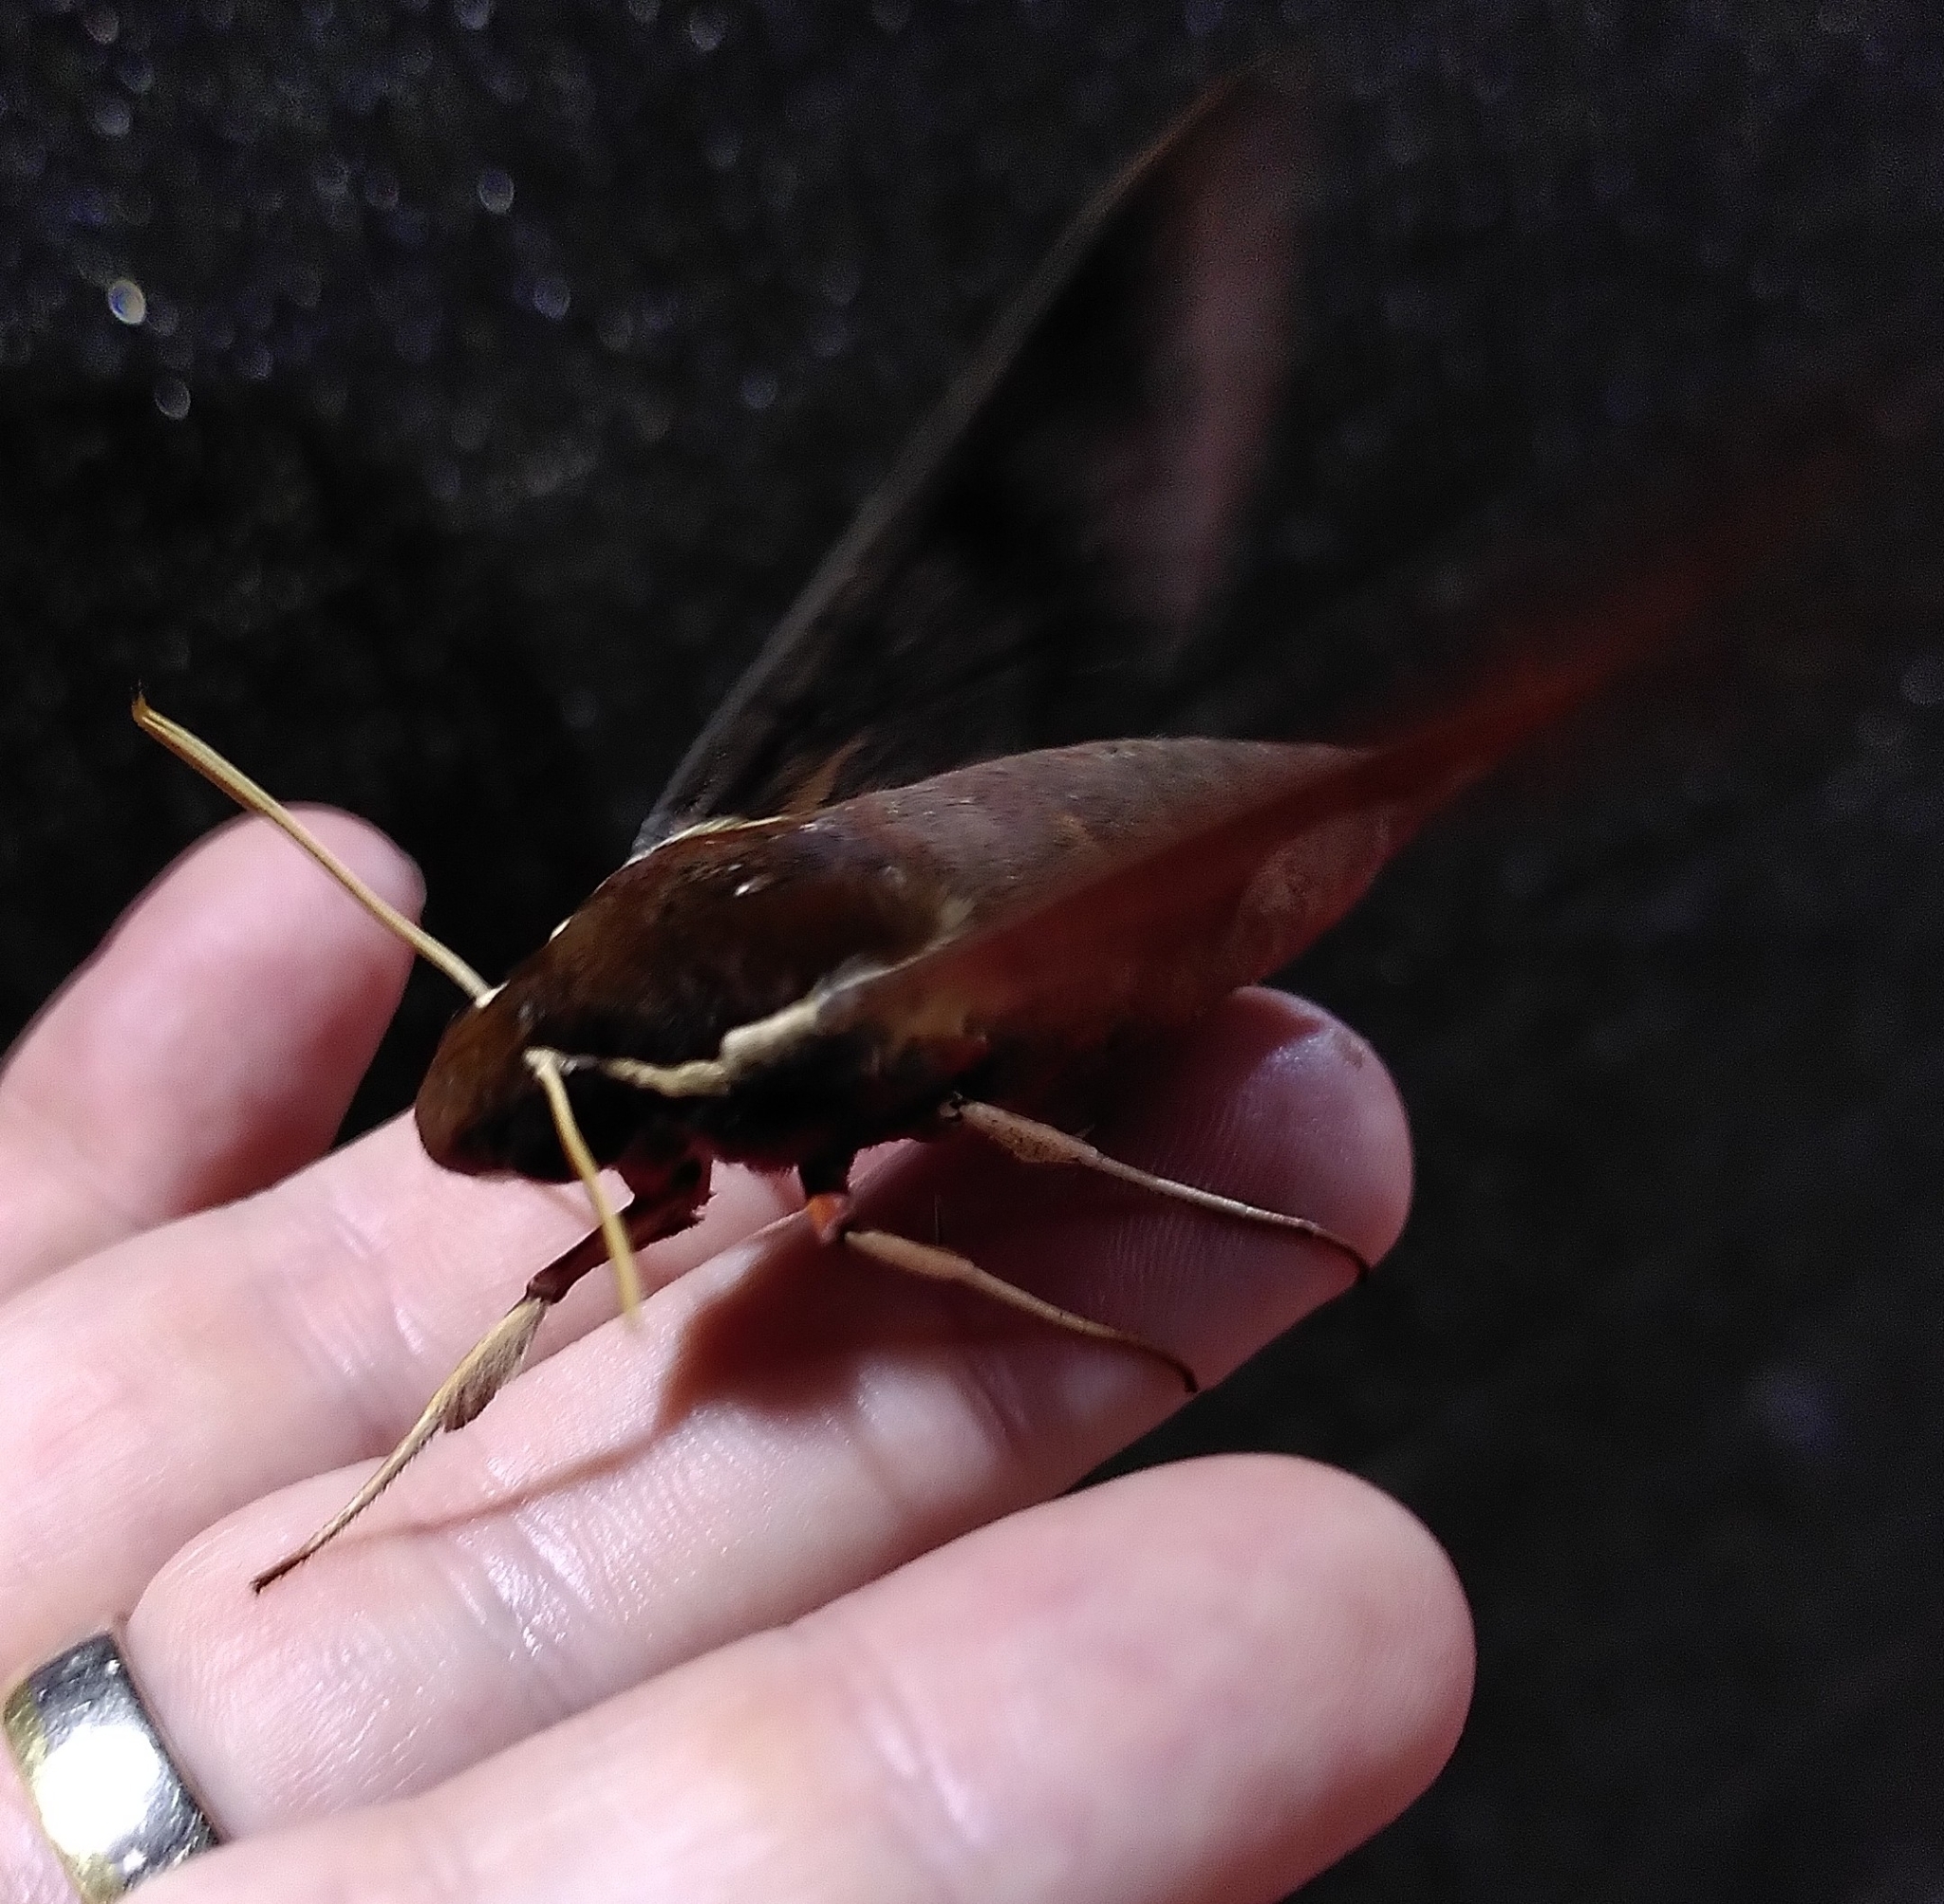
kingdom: Animalia
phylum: Arthropoda
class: Insecta
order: Lepidoptera
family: Sphingidae
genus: Gnathothlibus
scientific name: Gnathothlibus eras
